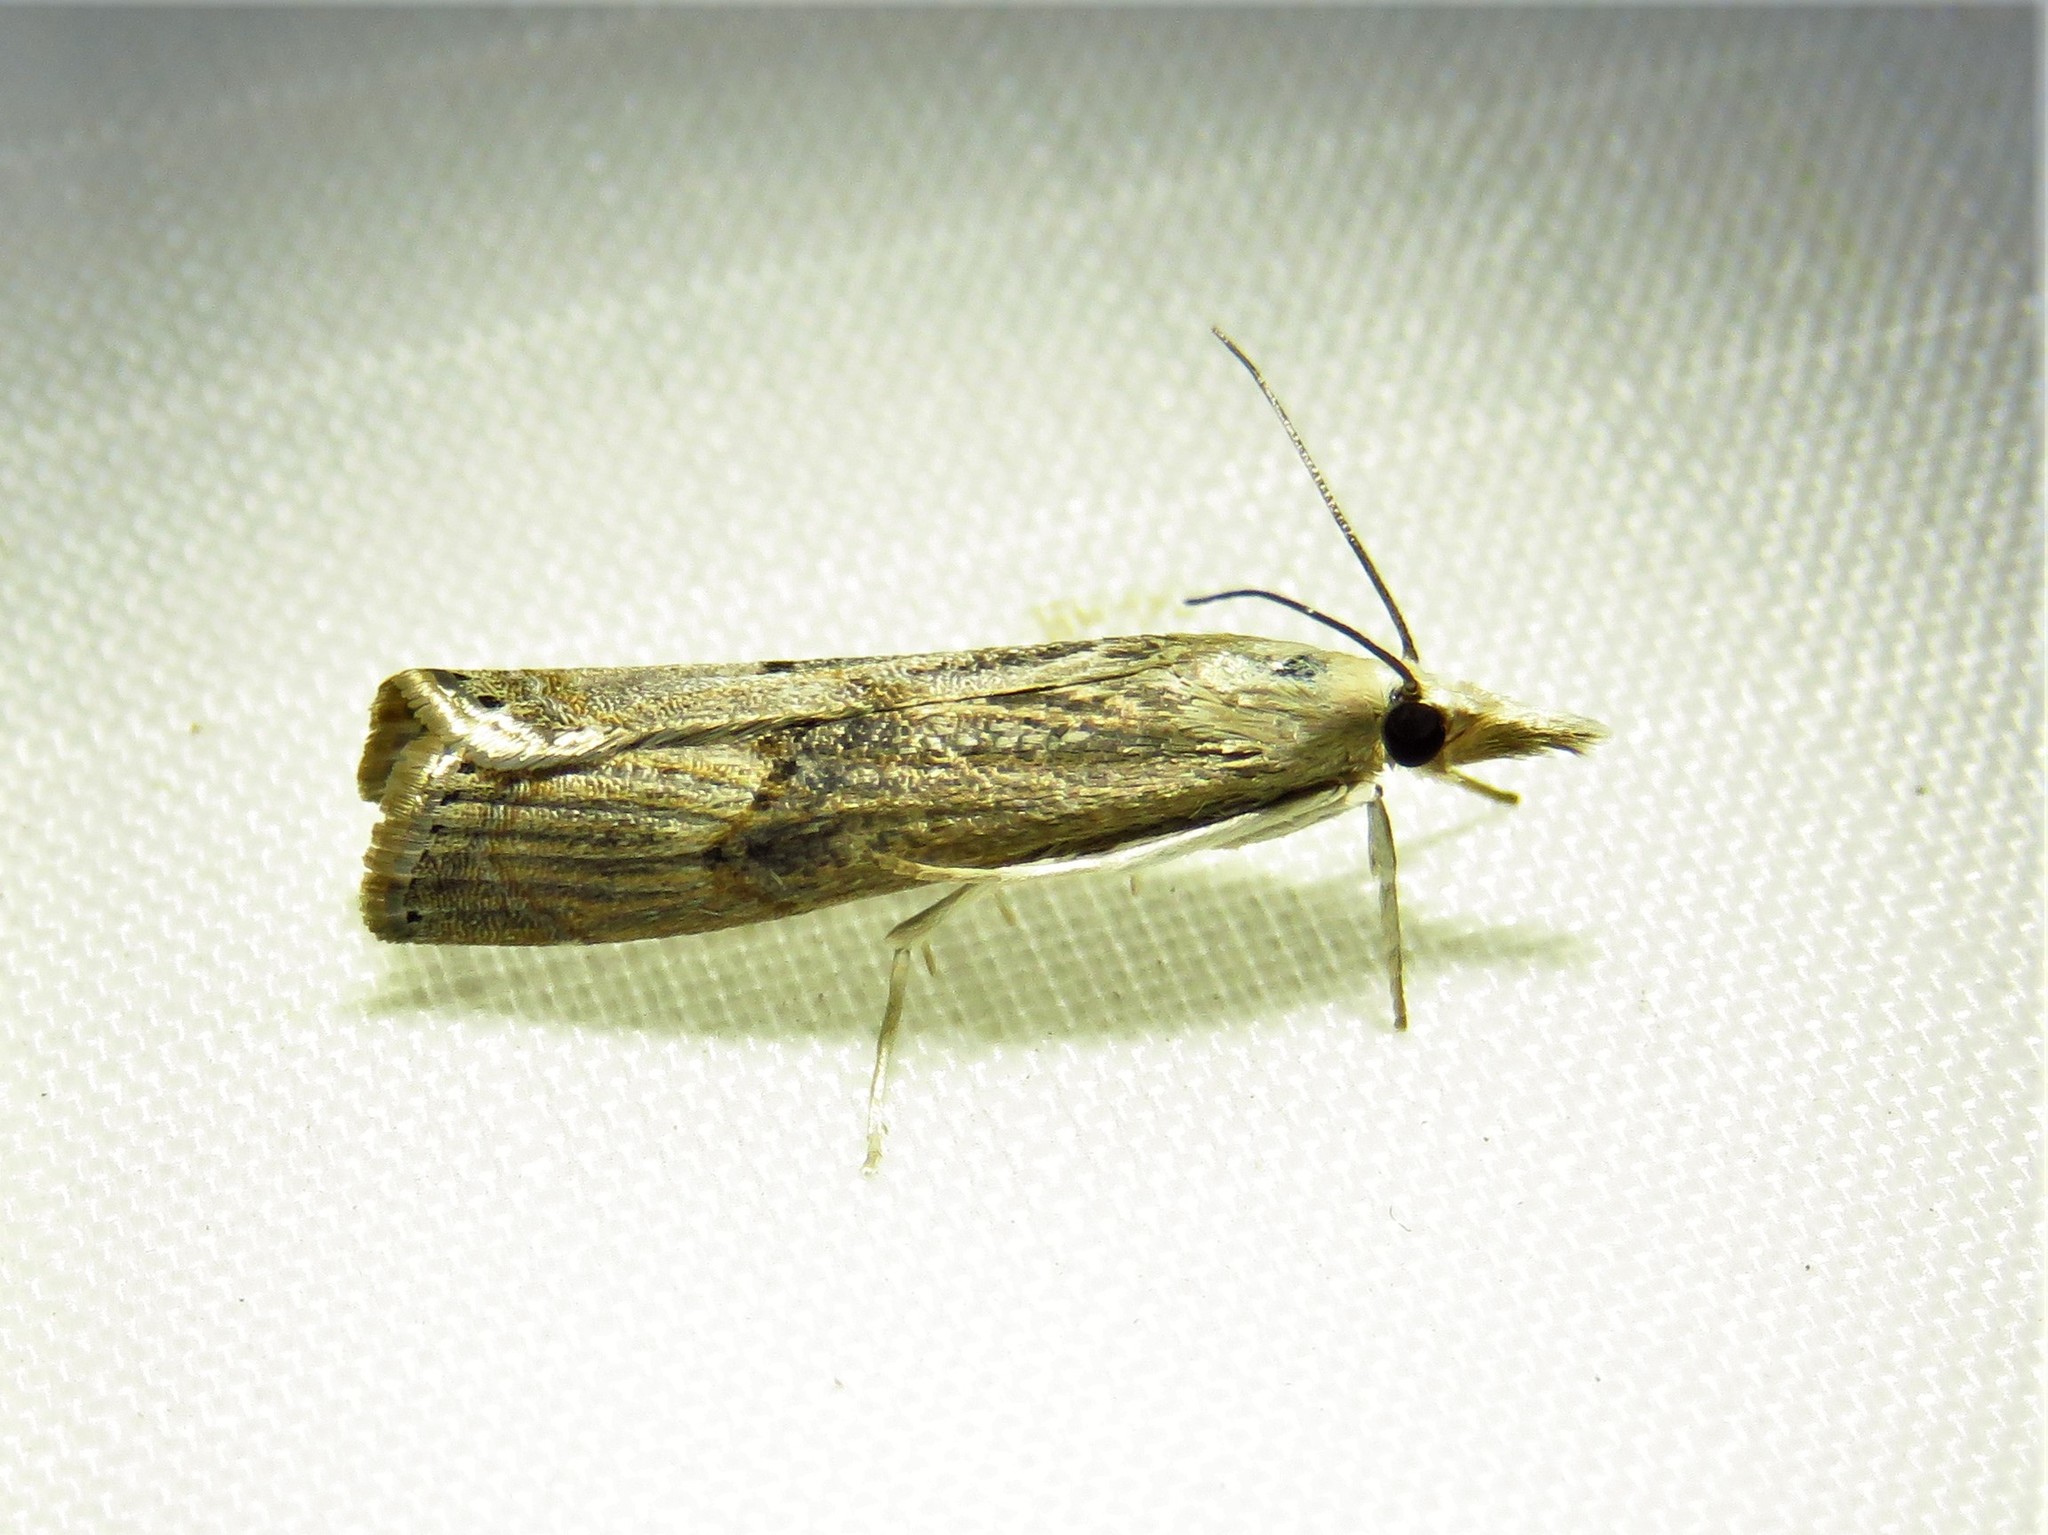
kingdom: Animalia
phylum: Arthropoda
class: Insecta
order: Lepidoptera
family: Crambidae
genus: Parapediasia
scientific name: Parapediasia teterellus
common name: Bluegrass webworm moth
